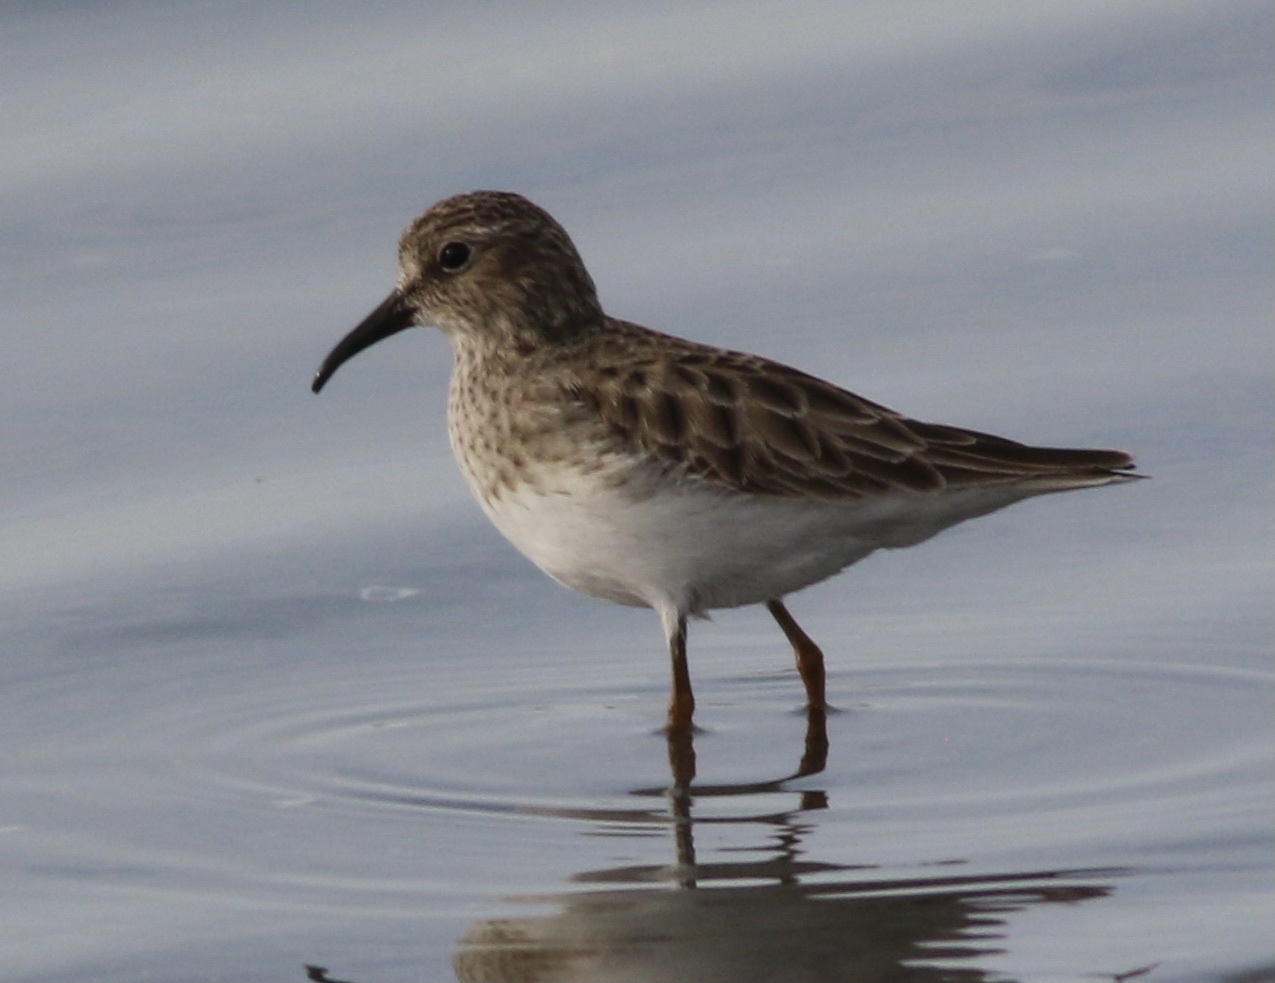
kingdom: Animalia
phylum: Chordata
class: Aves
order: Charadriiformes
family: Scolopacidae
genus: Calidris
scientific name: Calidris minutilla
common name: Least sandpiper
